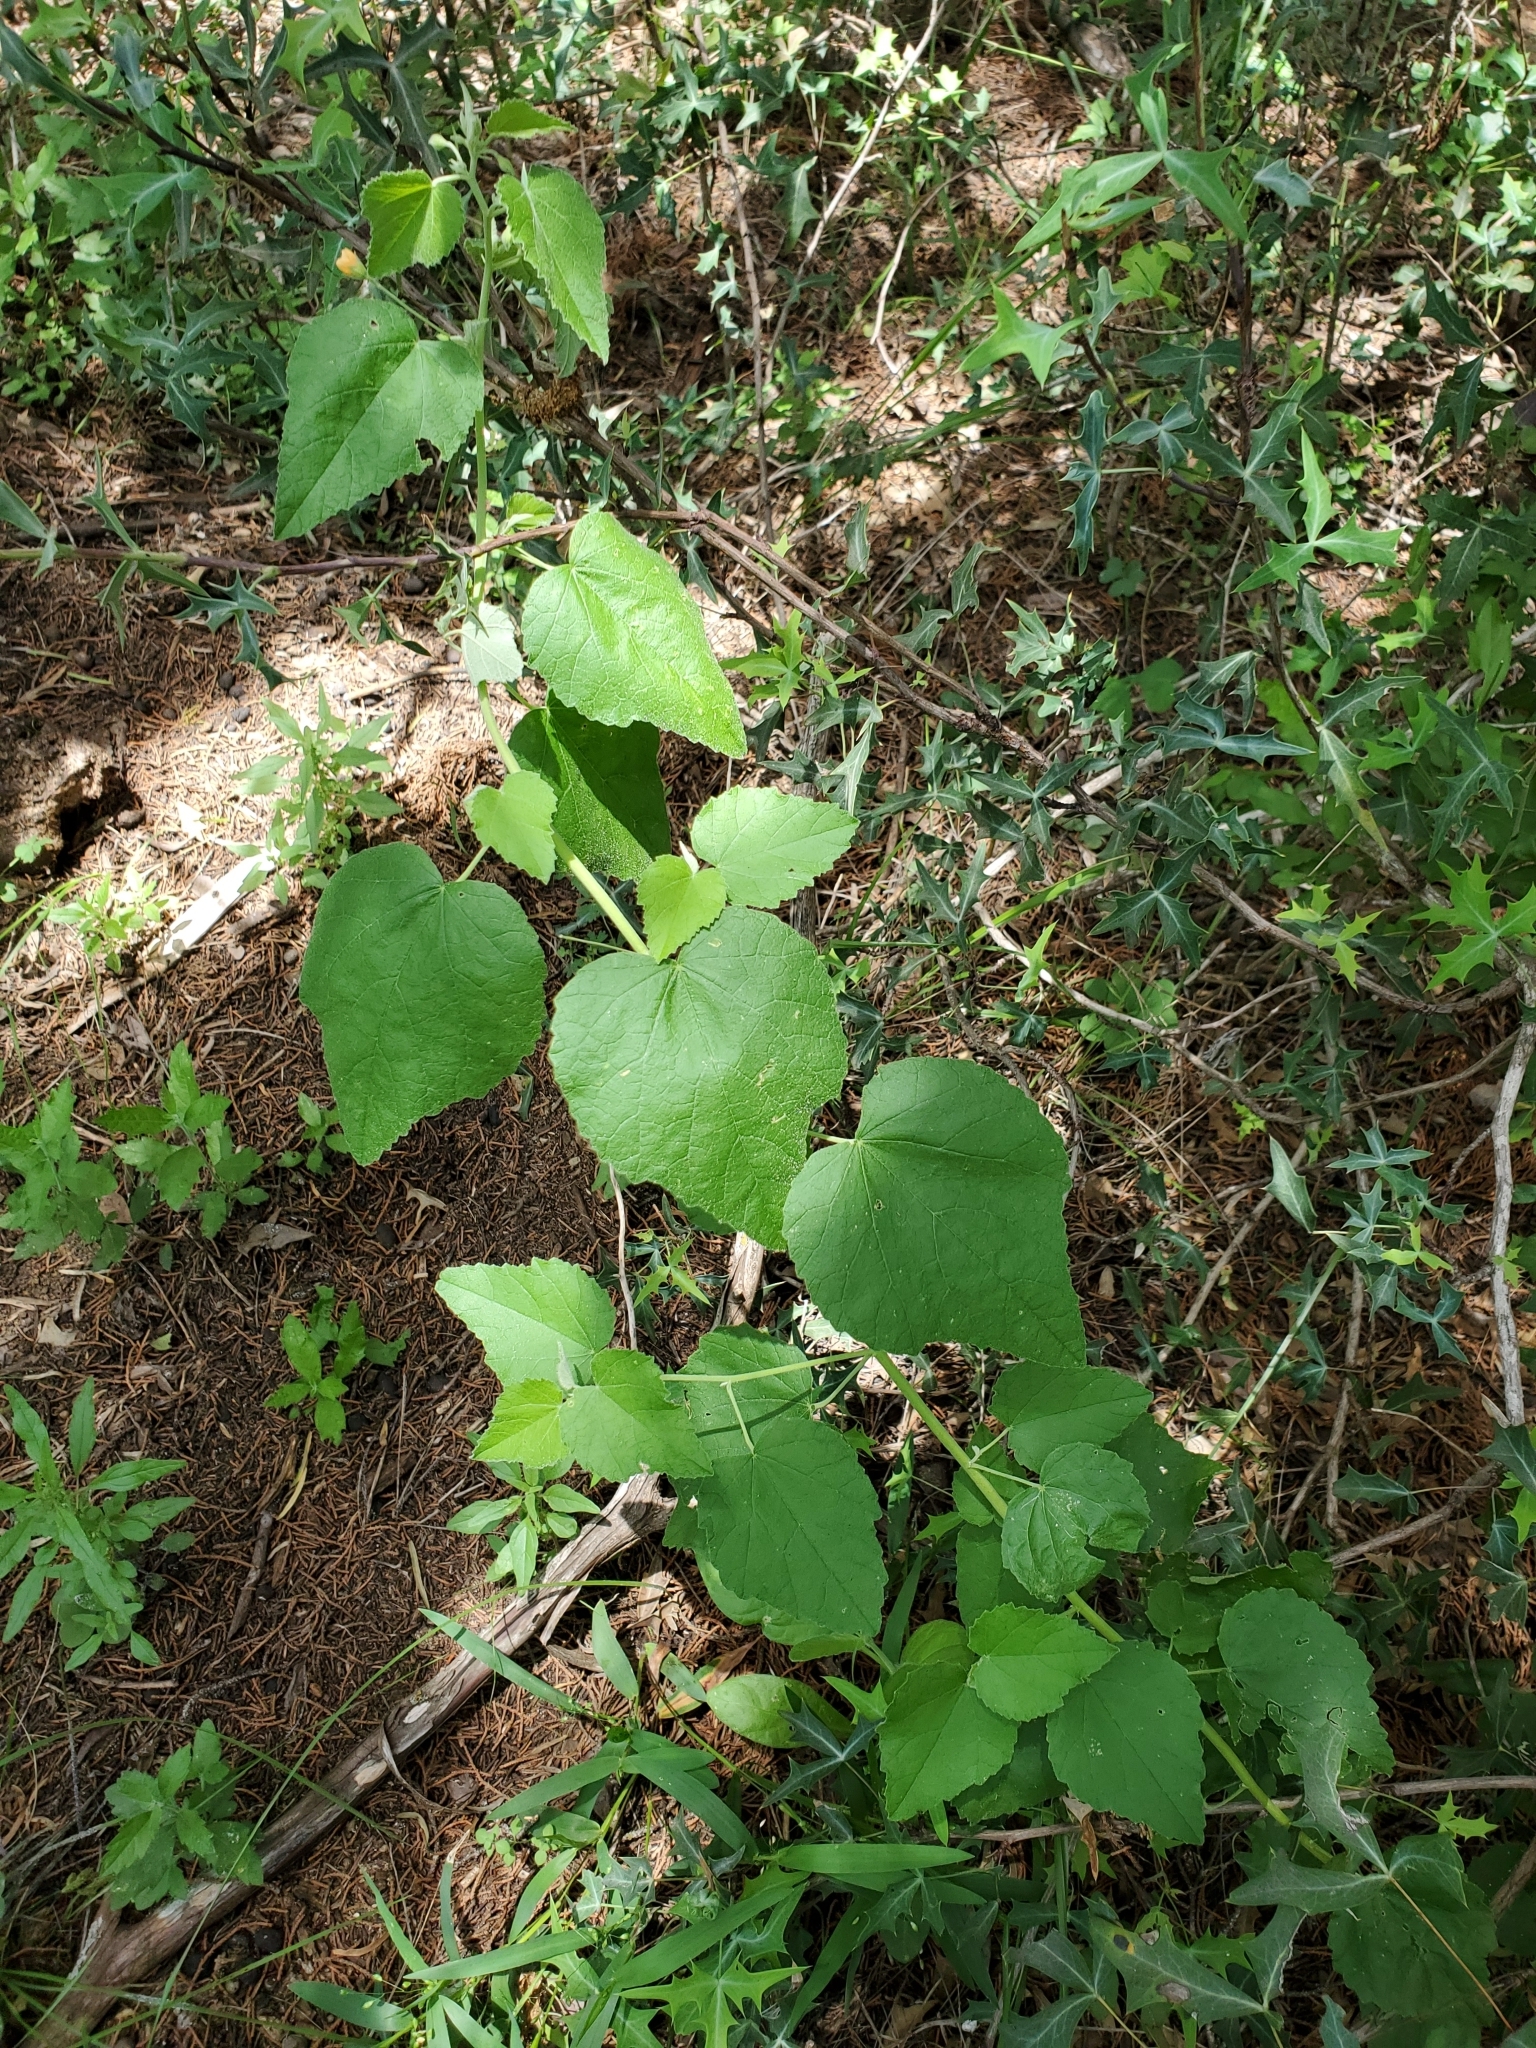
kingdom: Plantae
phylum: Tracheophyta
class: Magnoliopsida
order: Malvales
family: Malvaceae
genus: Allowissadula
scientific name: Allowissadula holosericea
